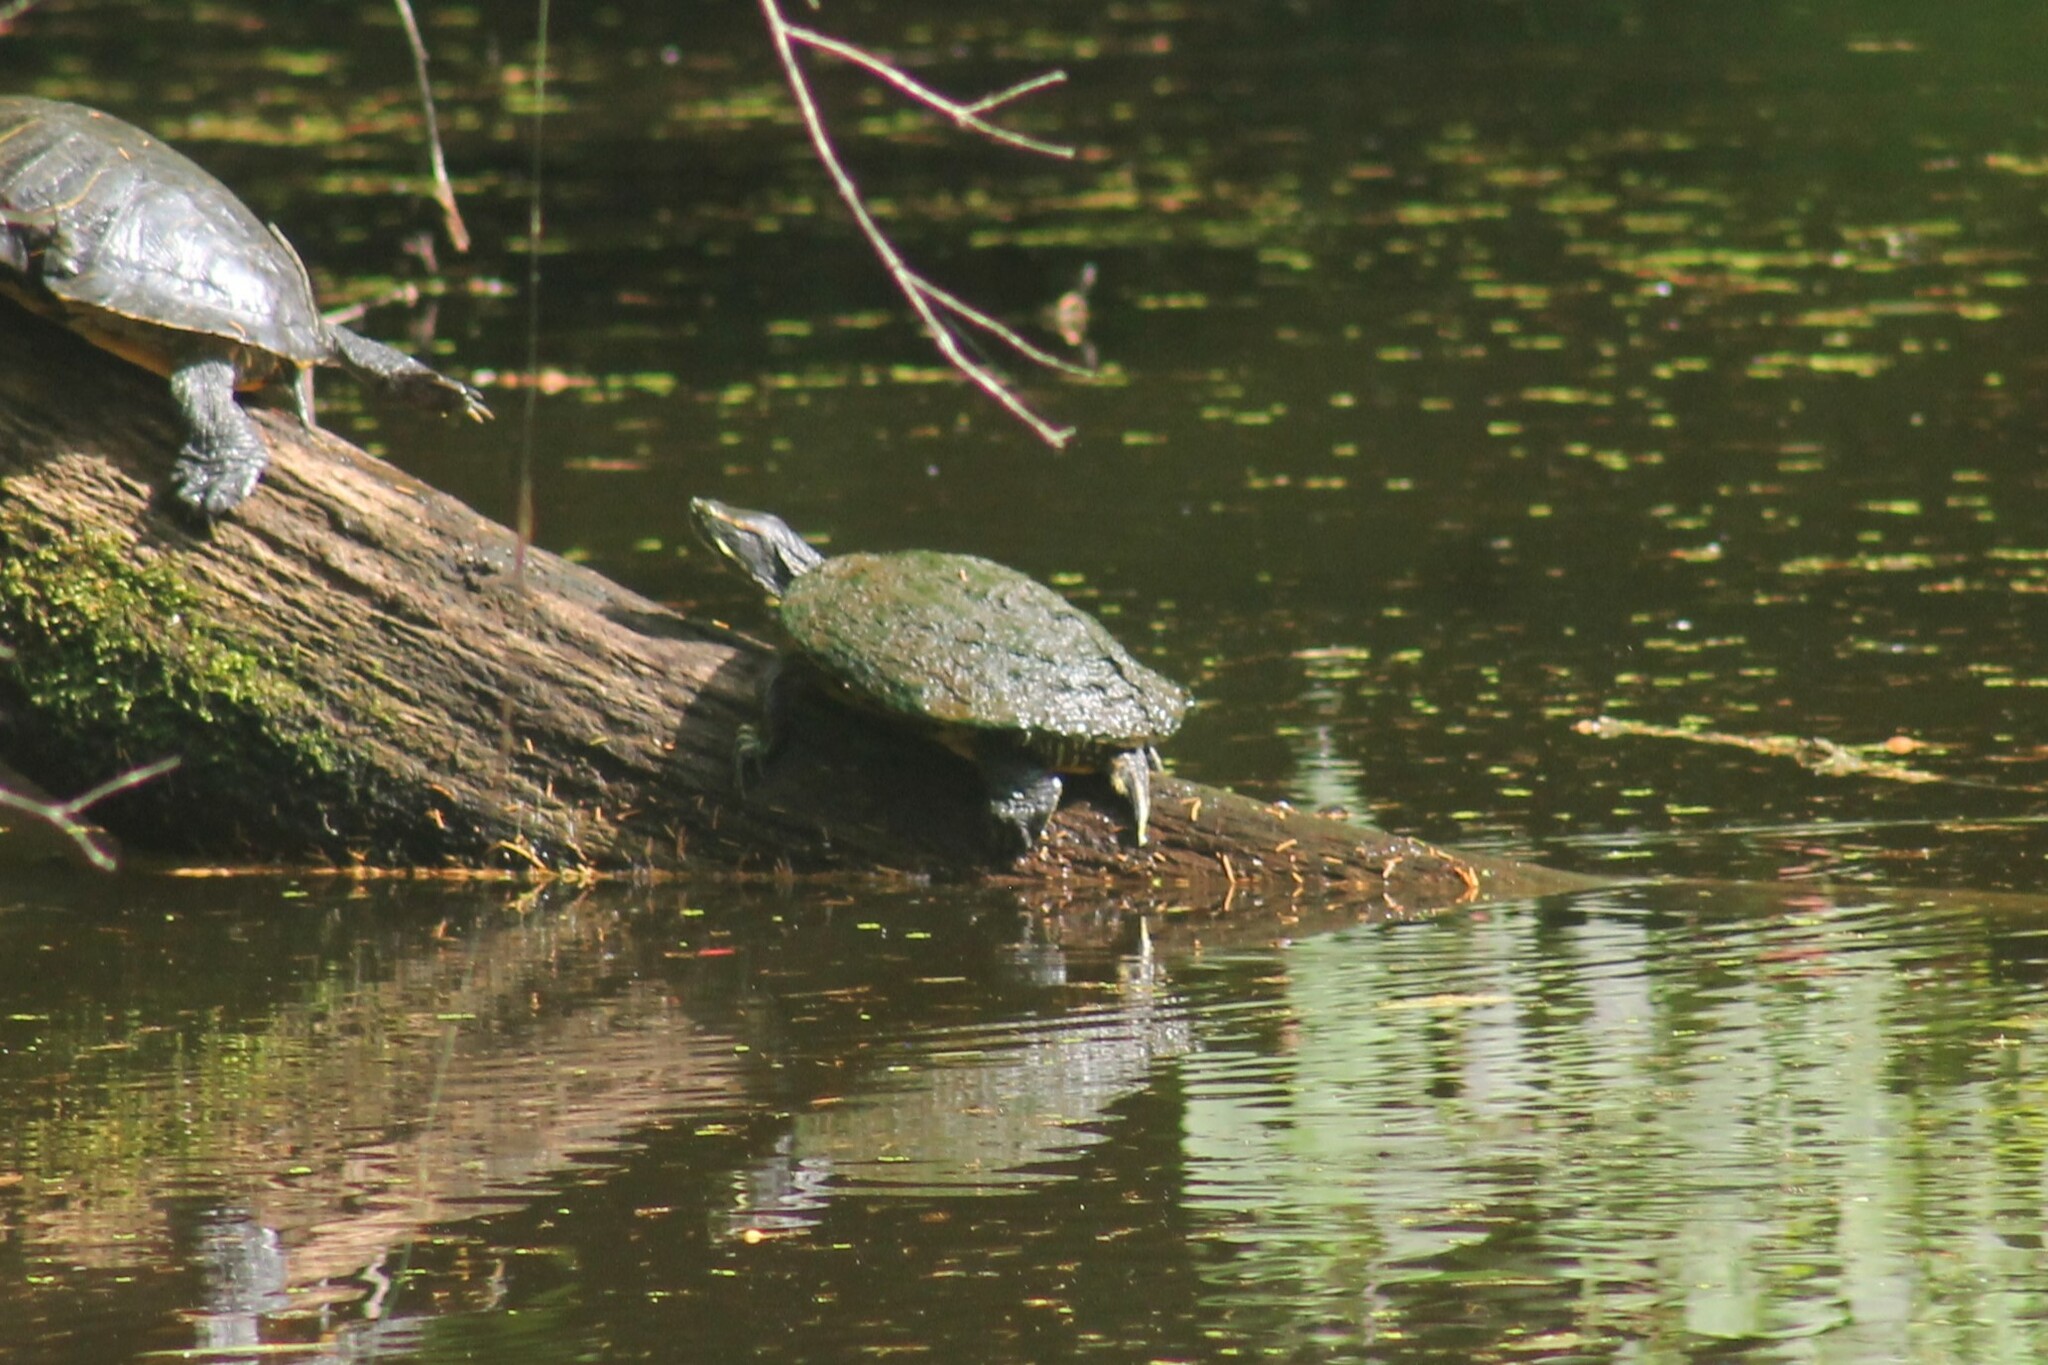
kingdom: Animalia
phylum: Chordata
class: Testudines
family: Emydidae
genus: Trachemys
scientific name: Trachemys scripta
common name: Slider
